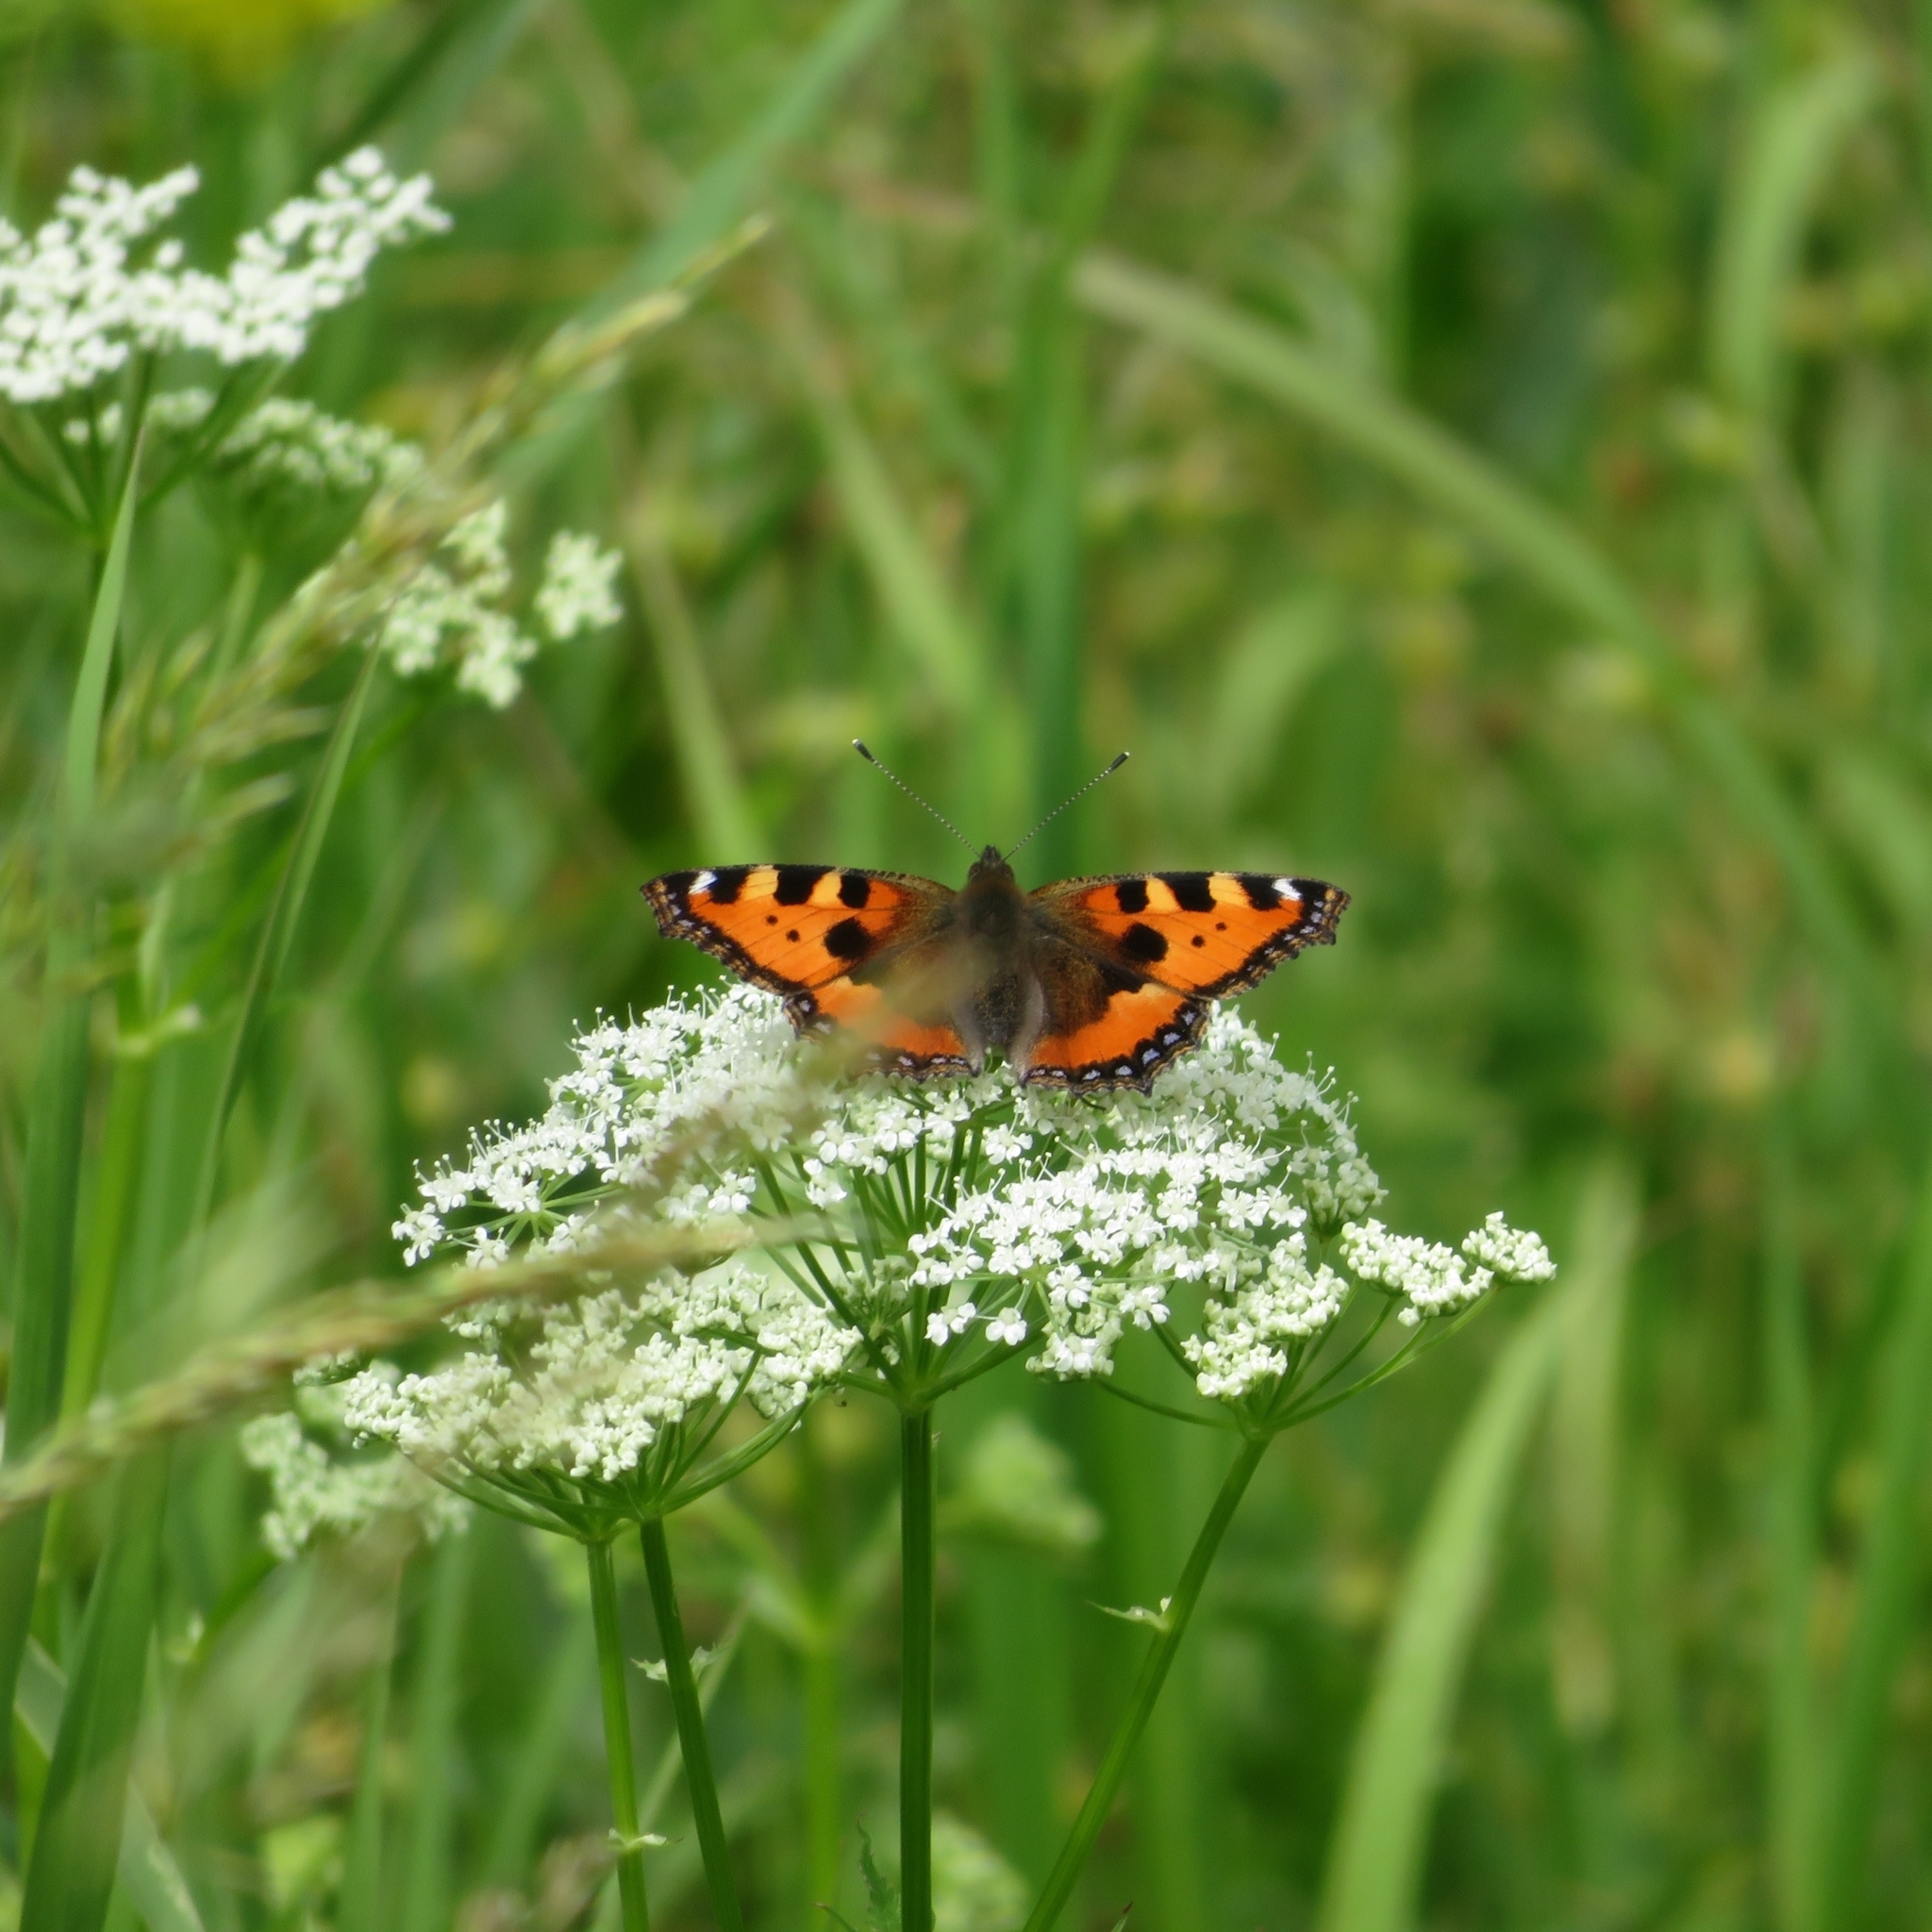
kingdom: Animalia
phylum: Arthropoda
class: Insecta
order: Lepidoptera
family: Nymphalidae
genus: Aglais
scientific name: Aglais urticae
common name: Small tortoiseshell
